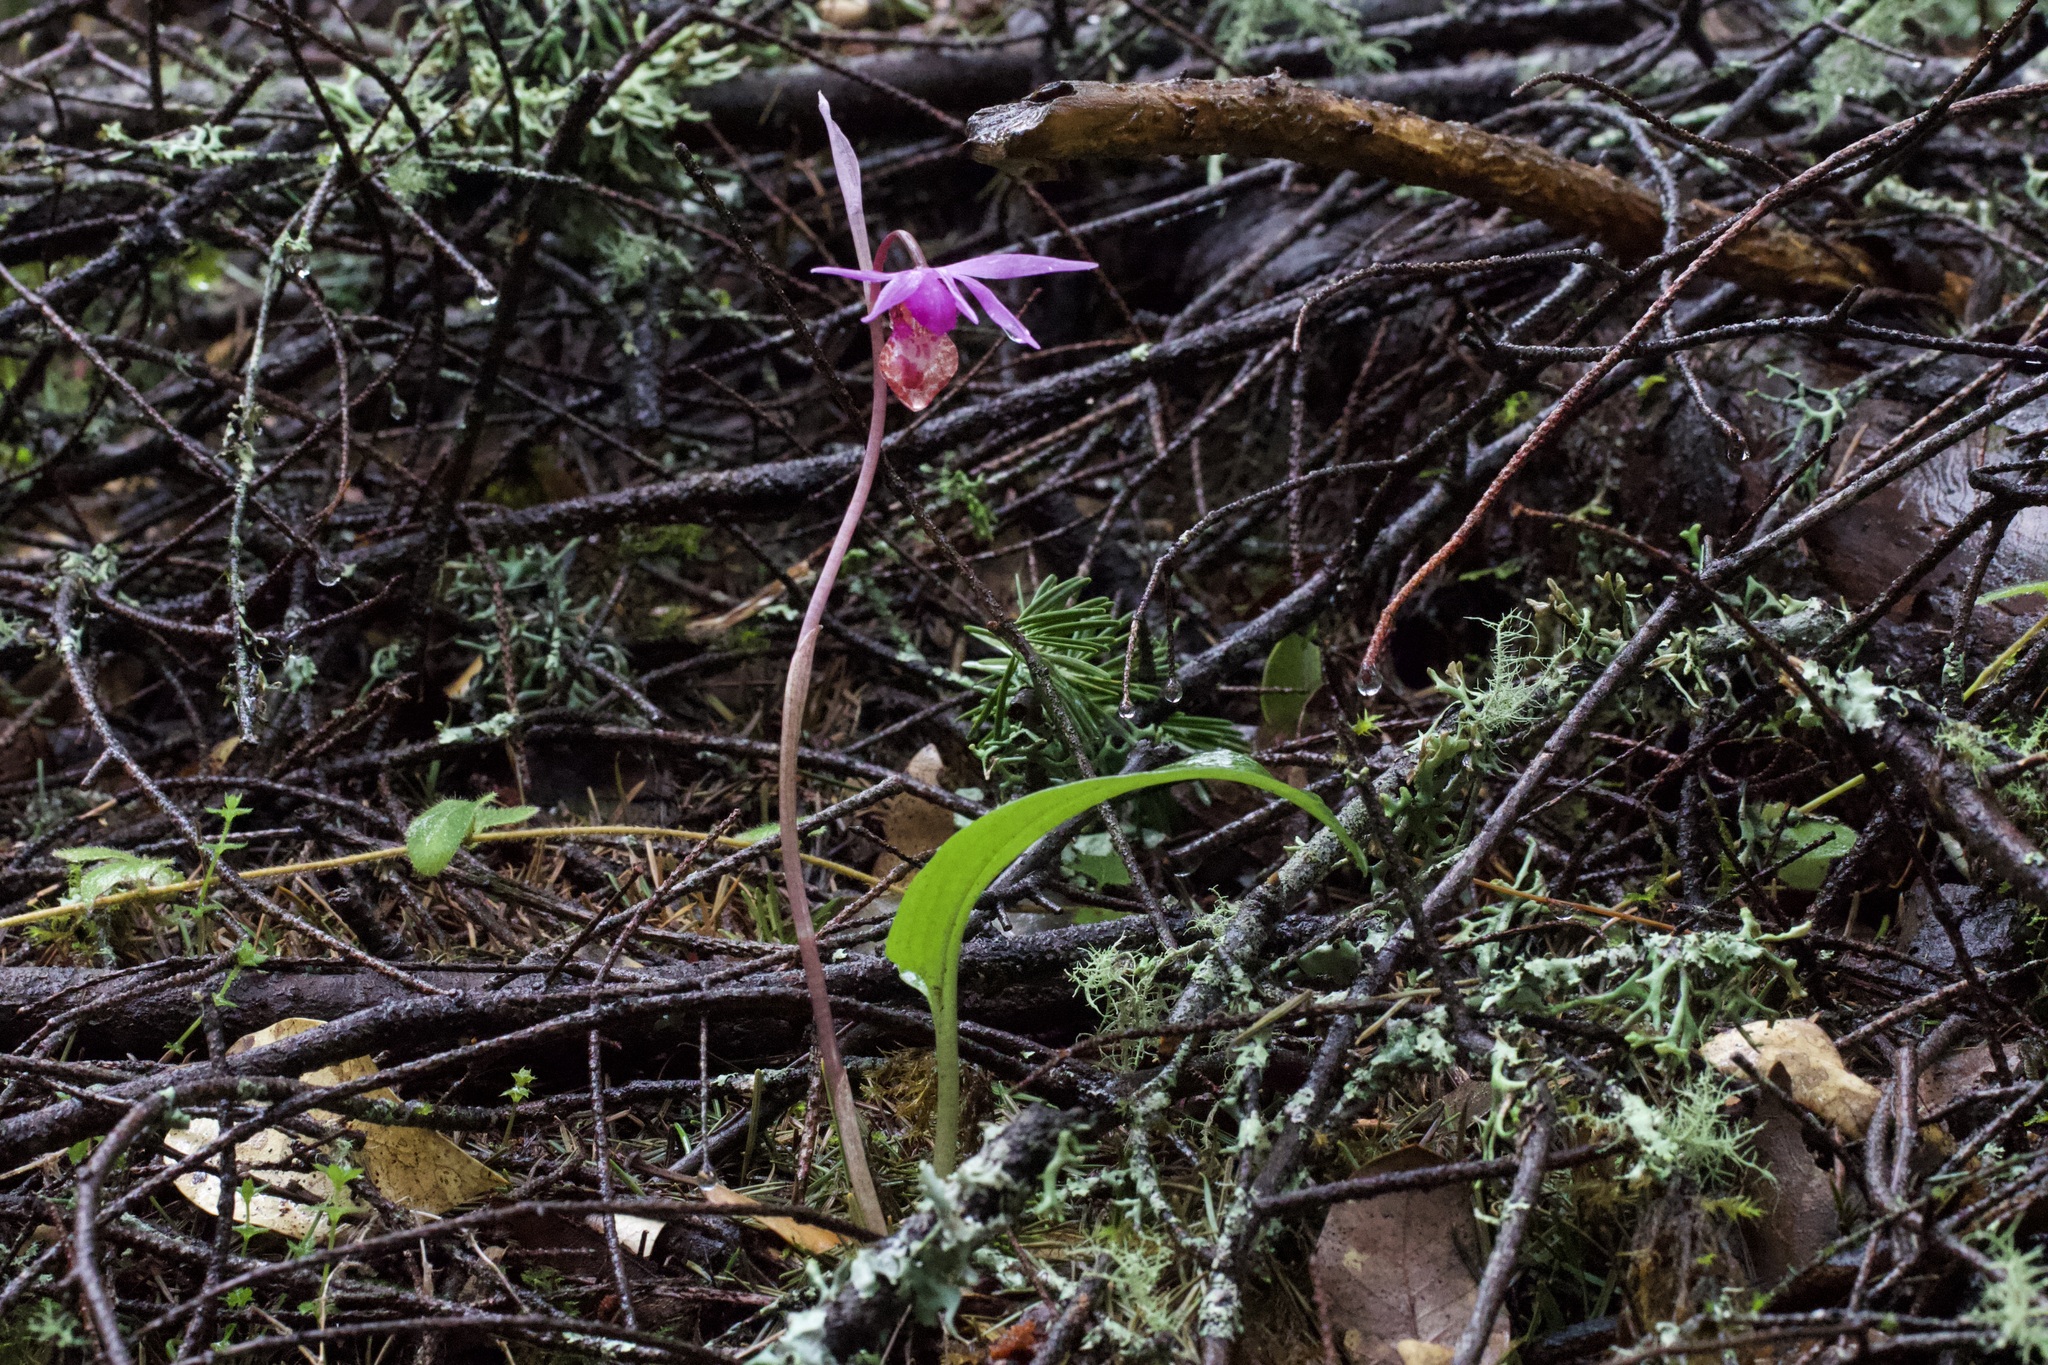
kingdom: Plantae
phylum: Tracheophyta
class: Liliopsida
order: Asparagales
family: Orchidaceae
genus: Calypso
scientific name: Calypso bulbosa
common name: Calypso
